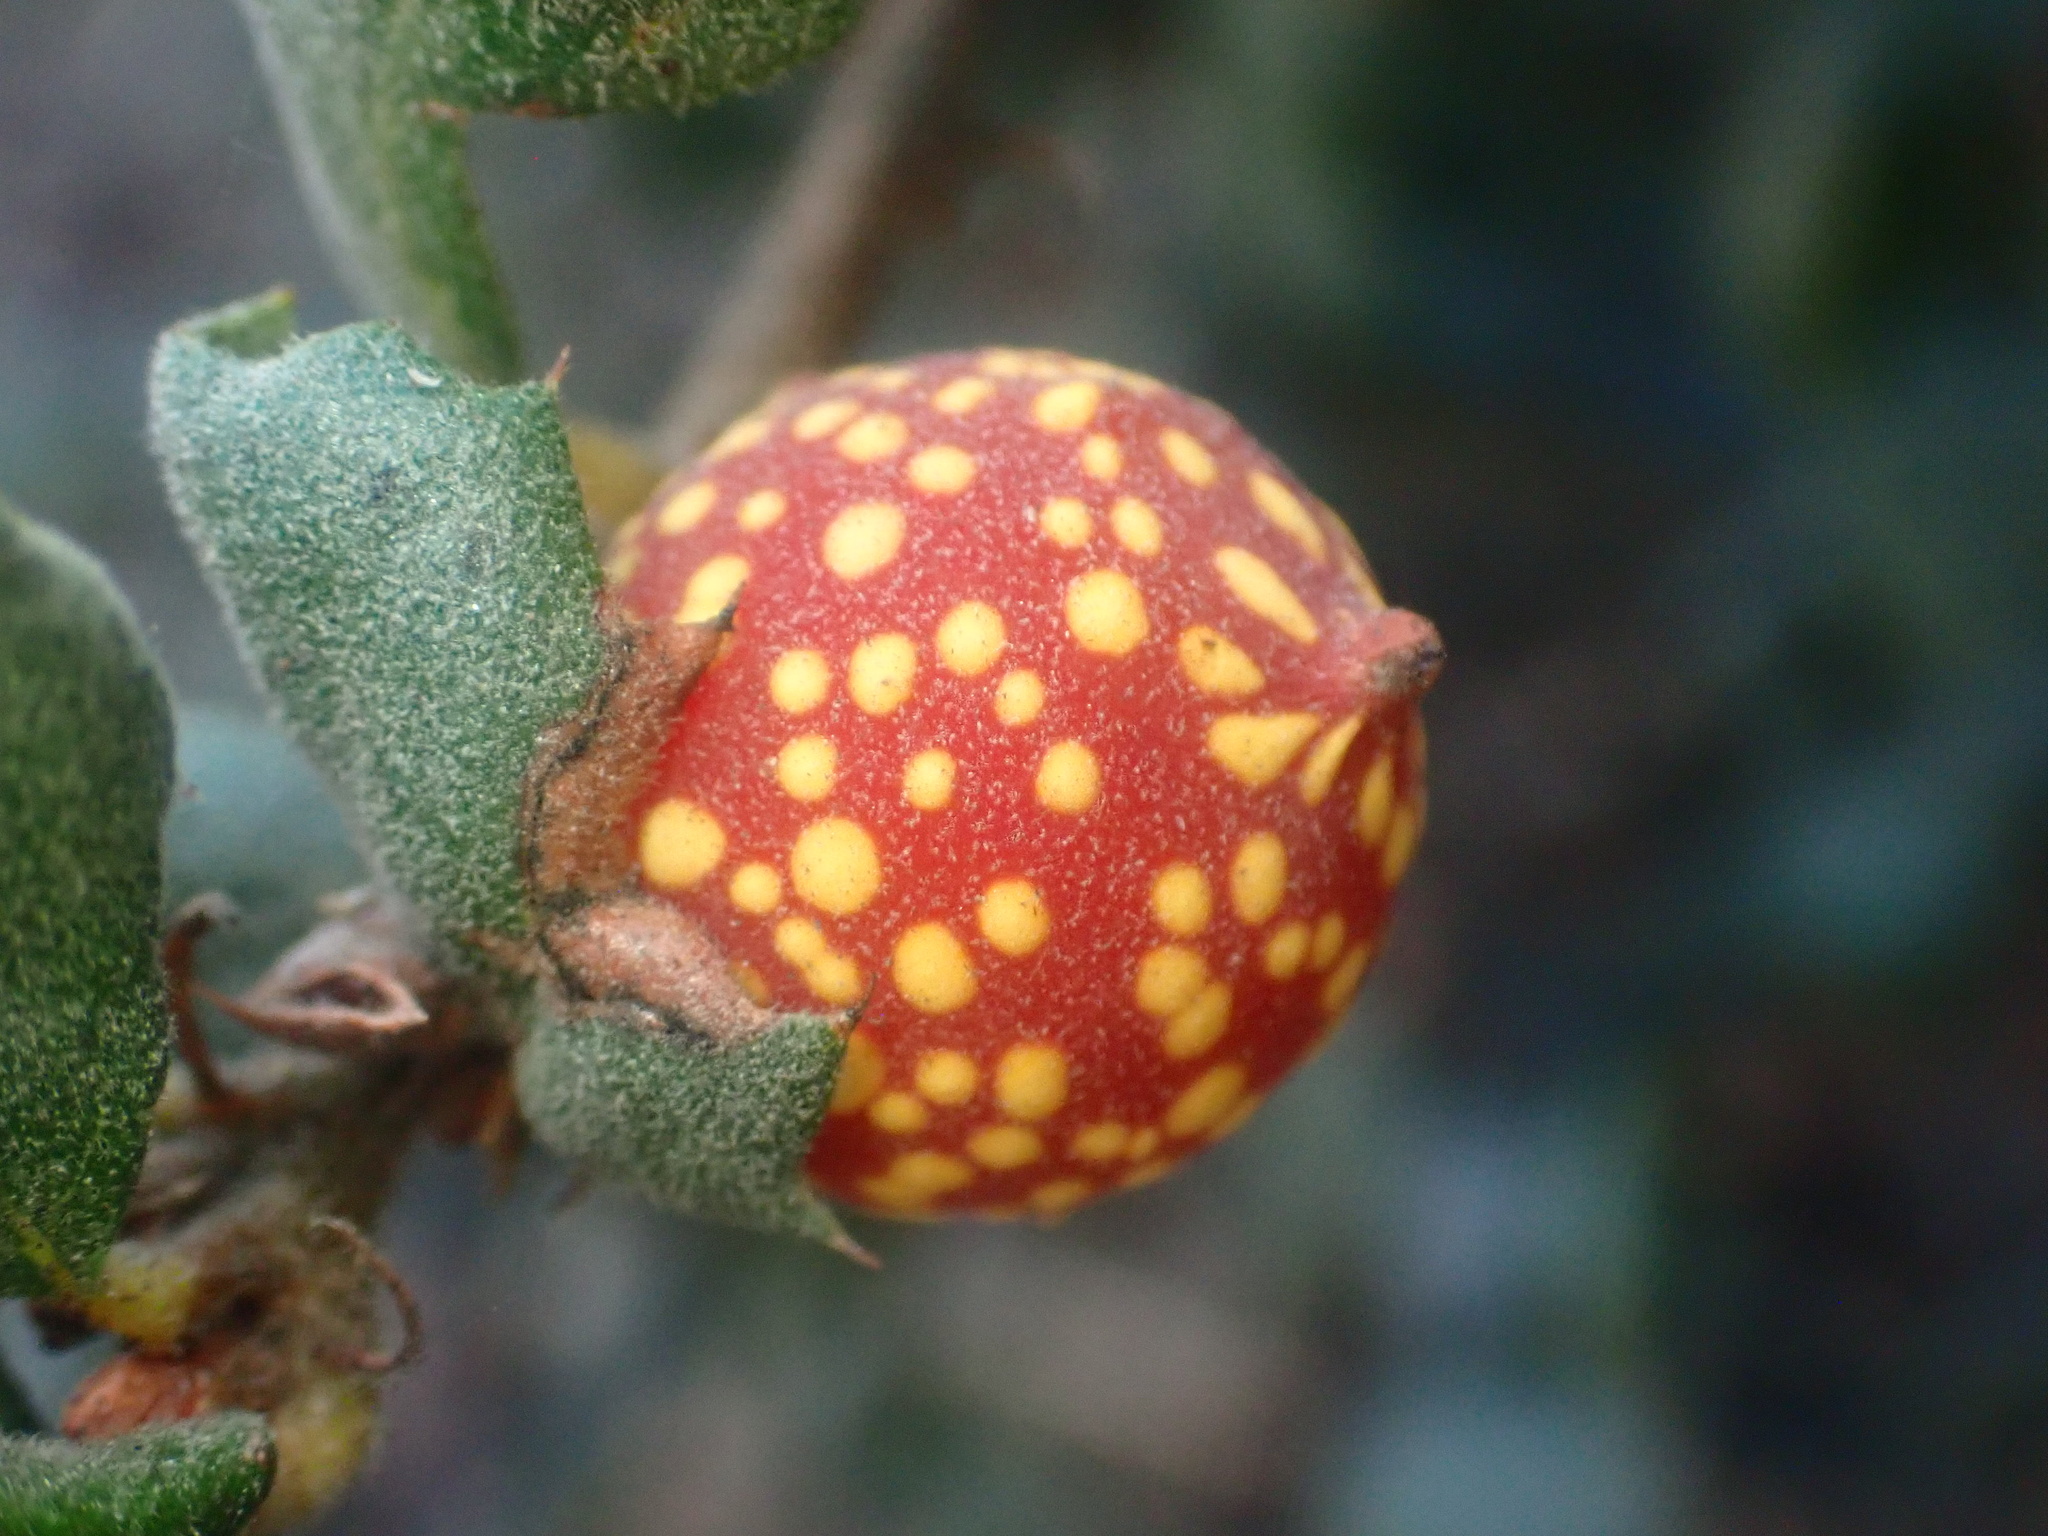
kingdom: Animalia
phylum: Arthropoda
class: Insecta
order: Hymenoptera
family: Cynipidae
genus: Burnettweldia
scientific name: Burnettweldia
